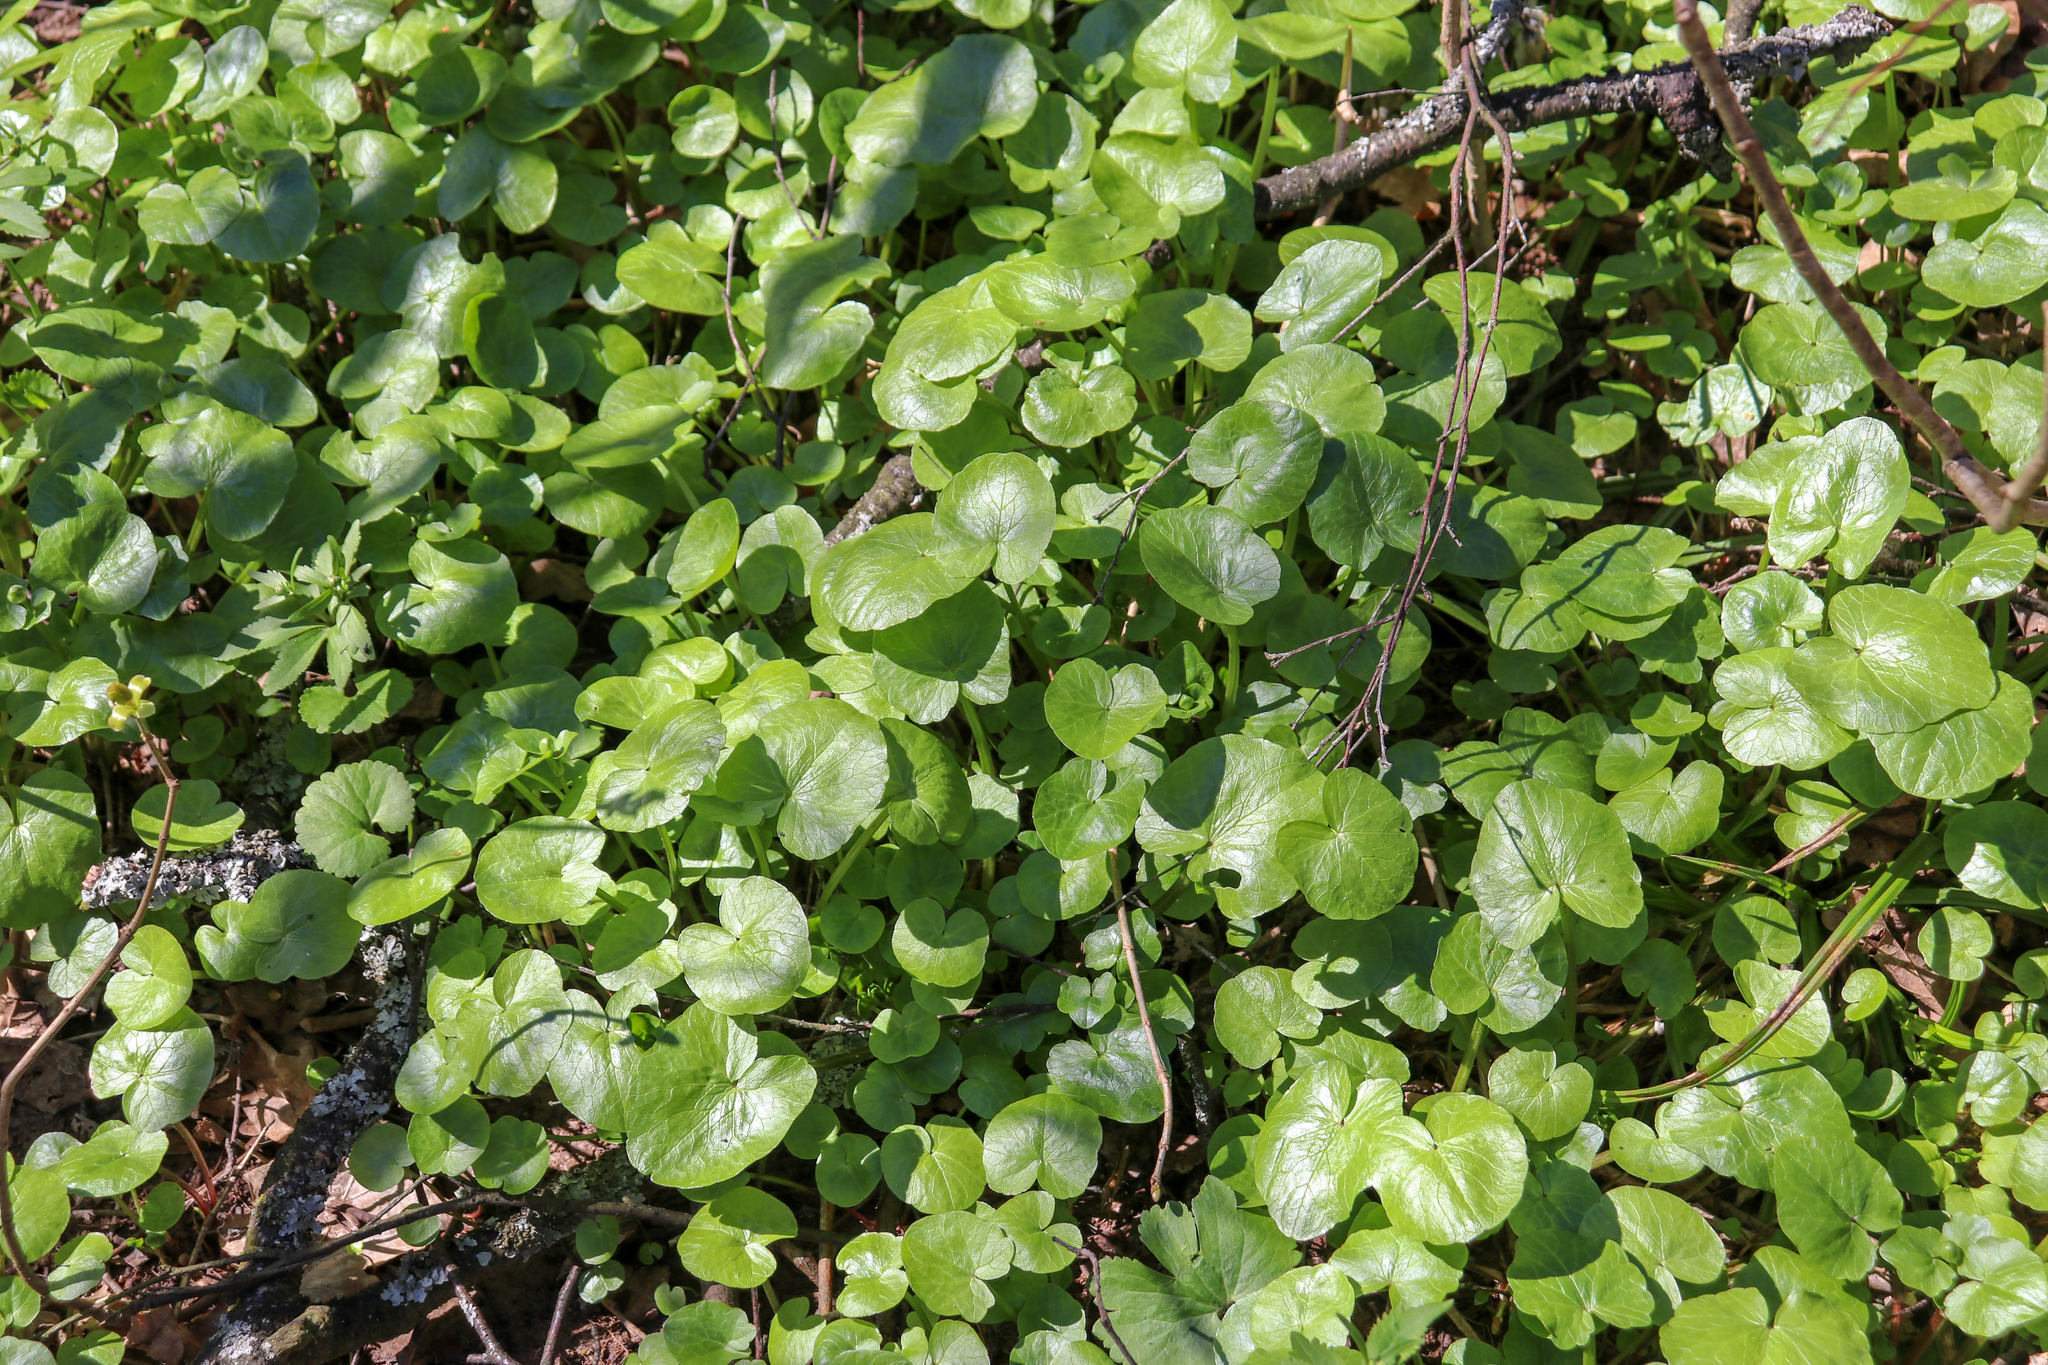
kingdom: Plantae
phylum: Tracheophyta
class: Magnoliopsida
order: Ranunculales
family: Ranunculaceae
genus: Ficaria
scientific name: Ficaria verna
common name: Lesser celandine
